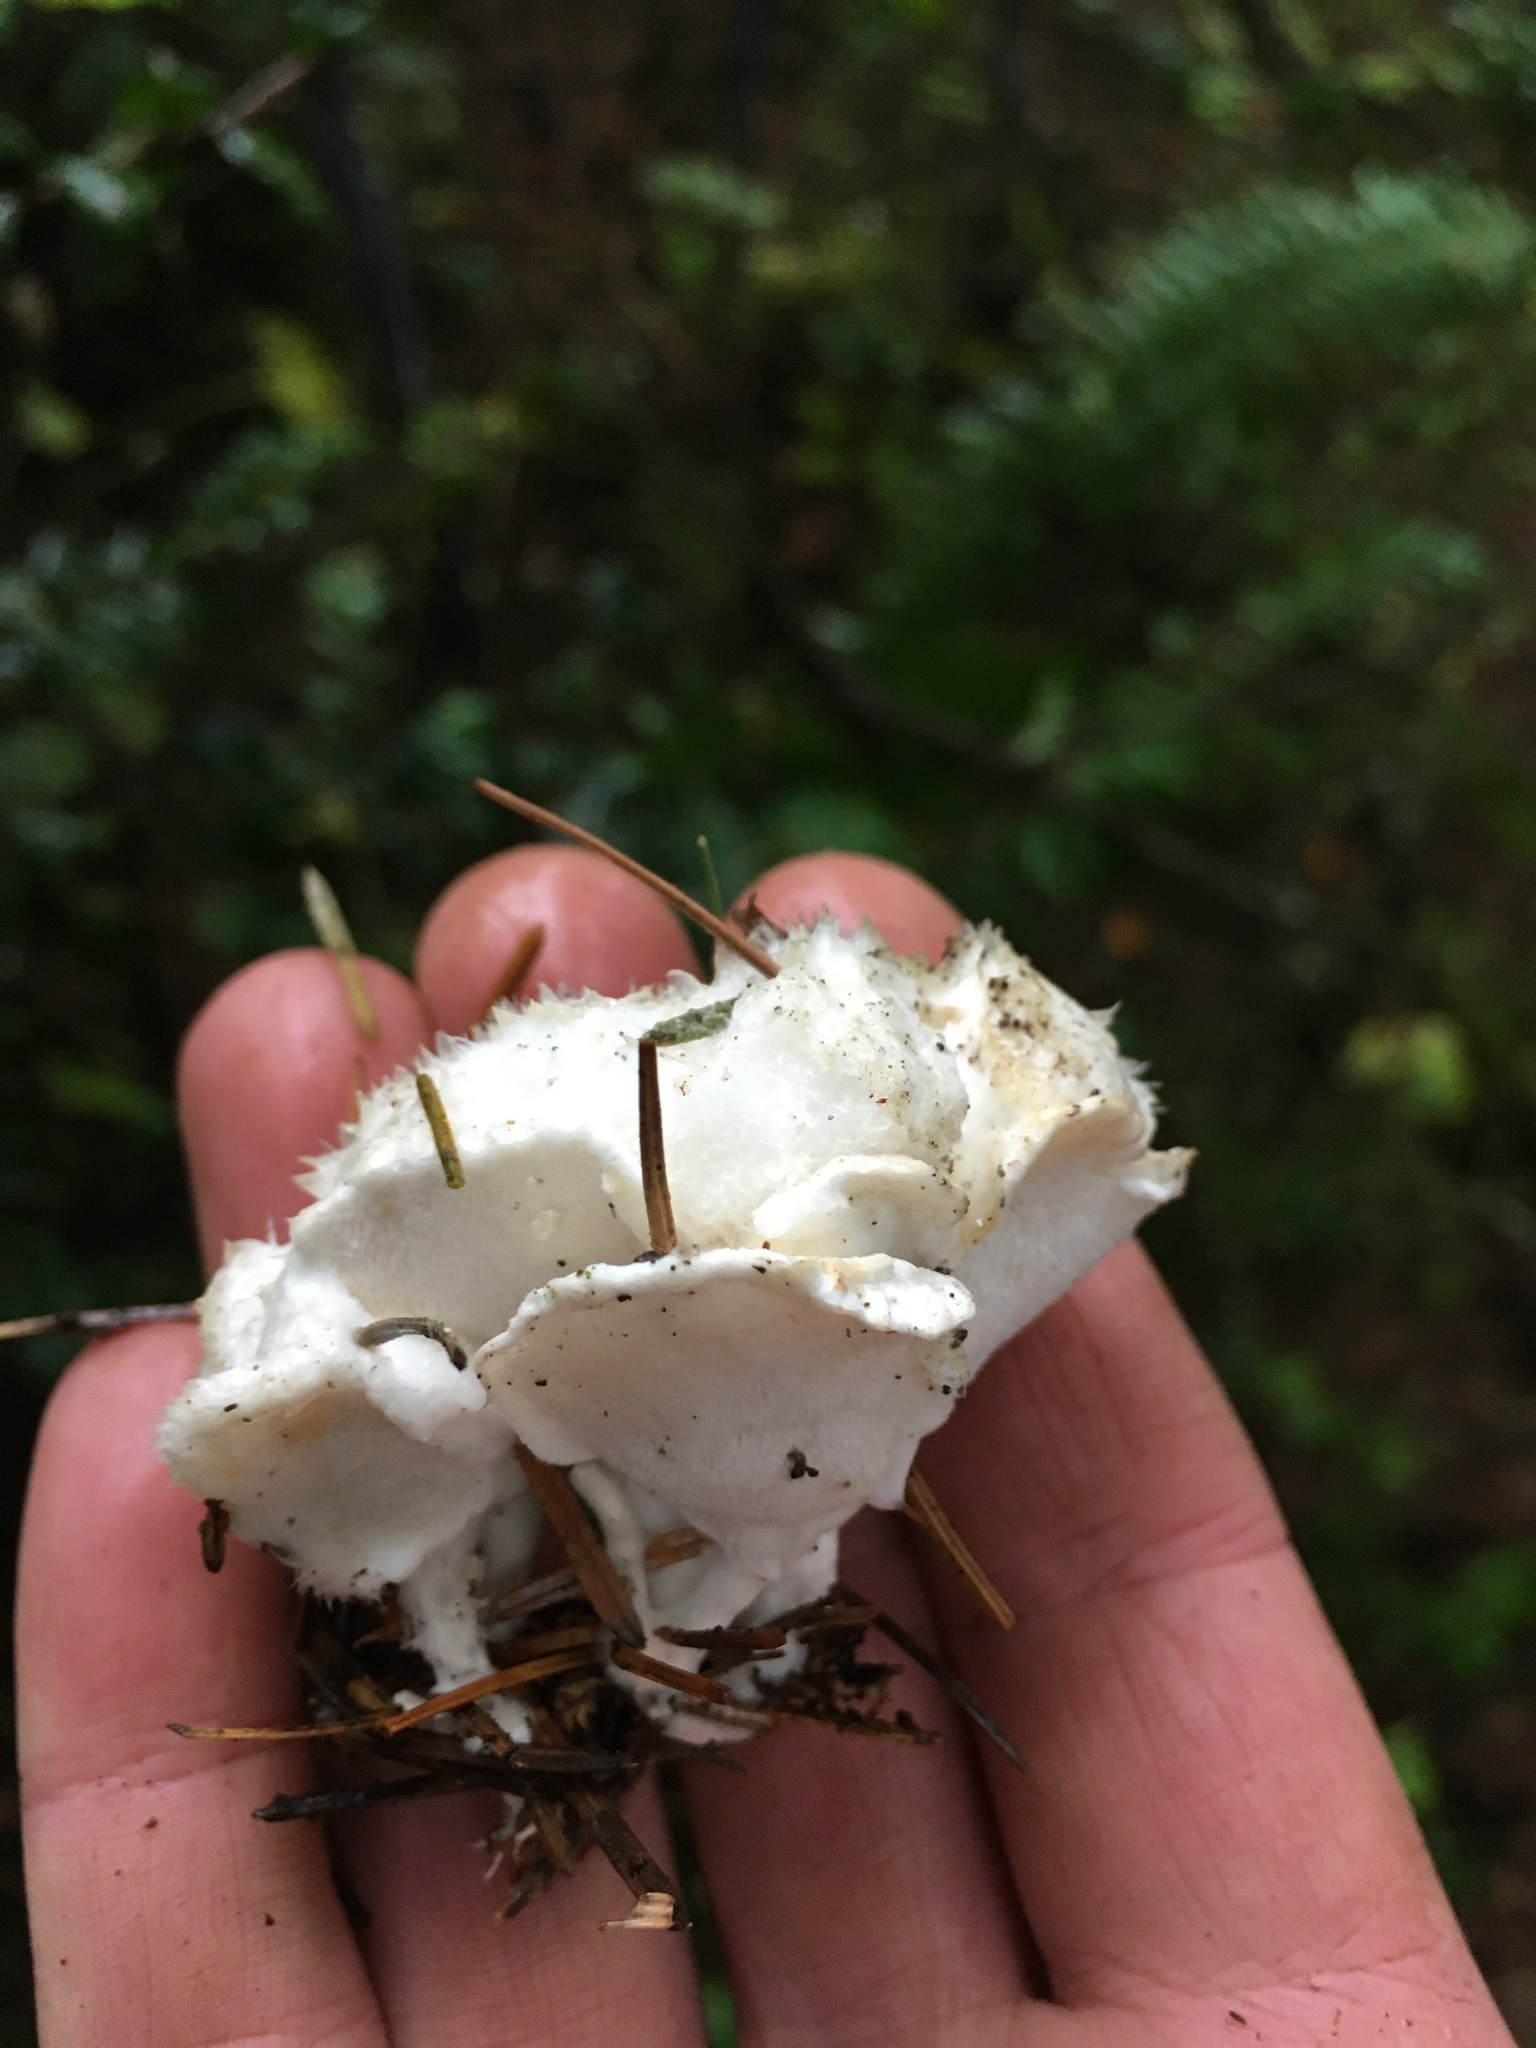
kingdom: Fungi
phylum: Basidiomycota
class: Agaricomycetes
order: Polyporales
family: Dacryobolaceae
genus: Postia
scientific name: Postia ptychogaster
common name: Powderpuff bracket
